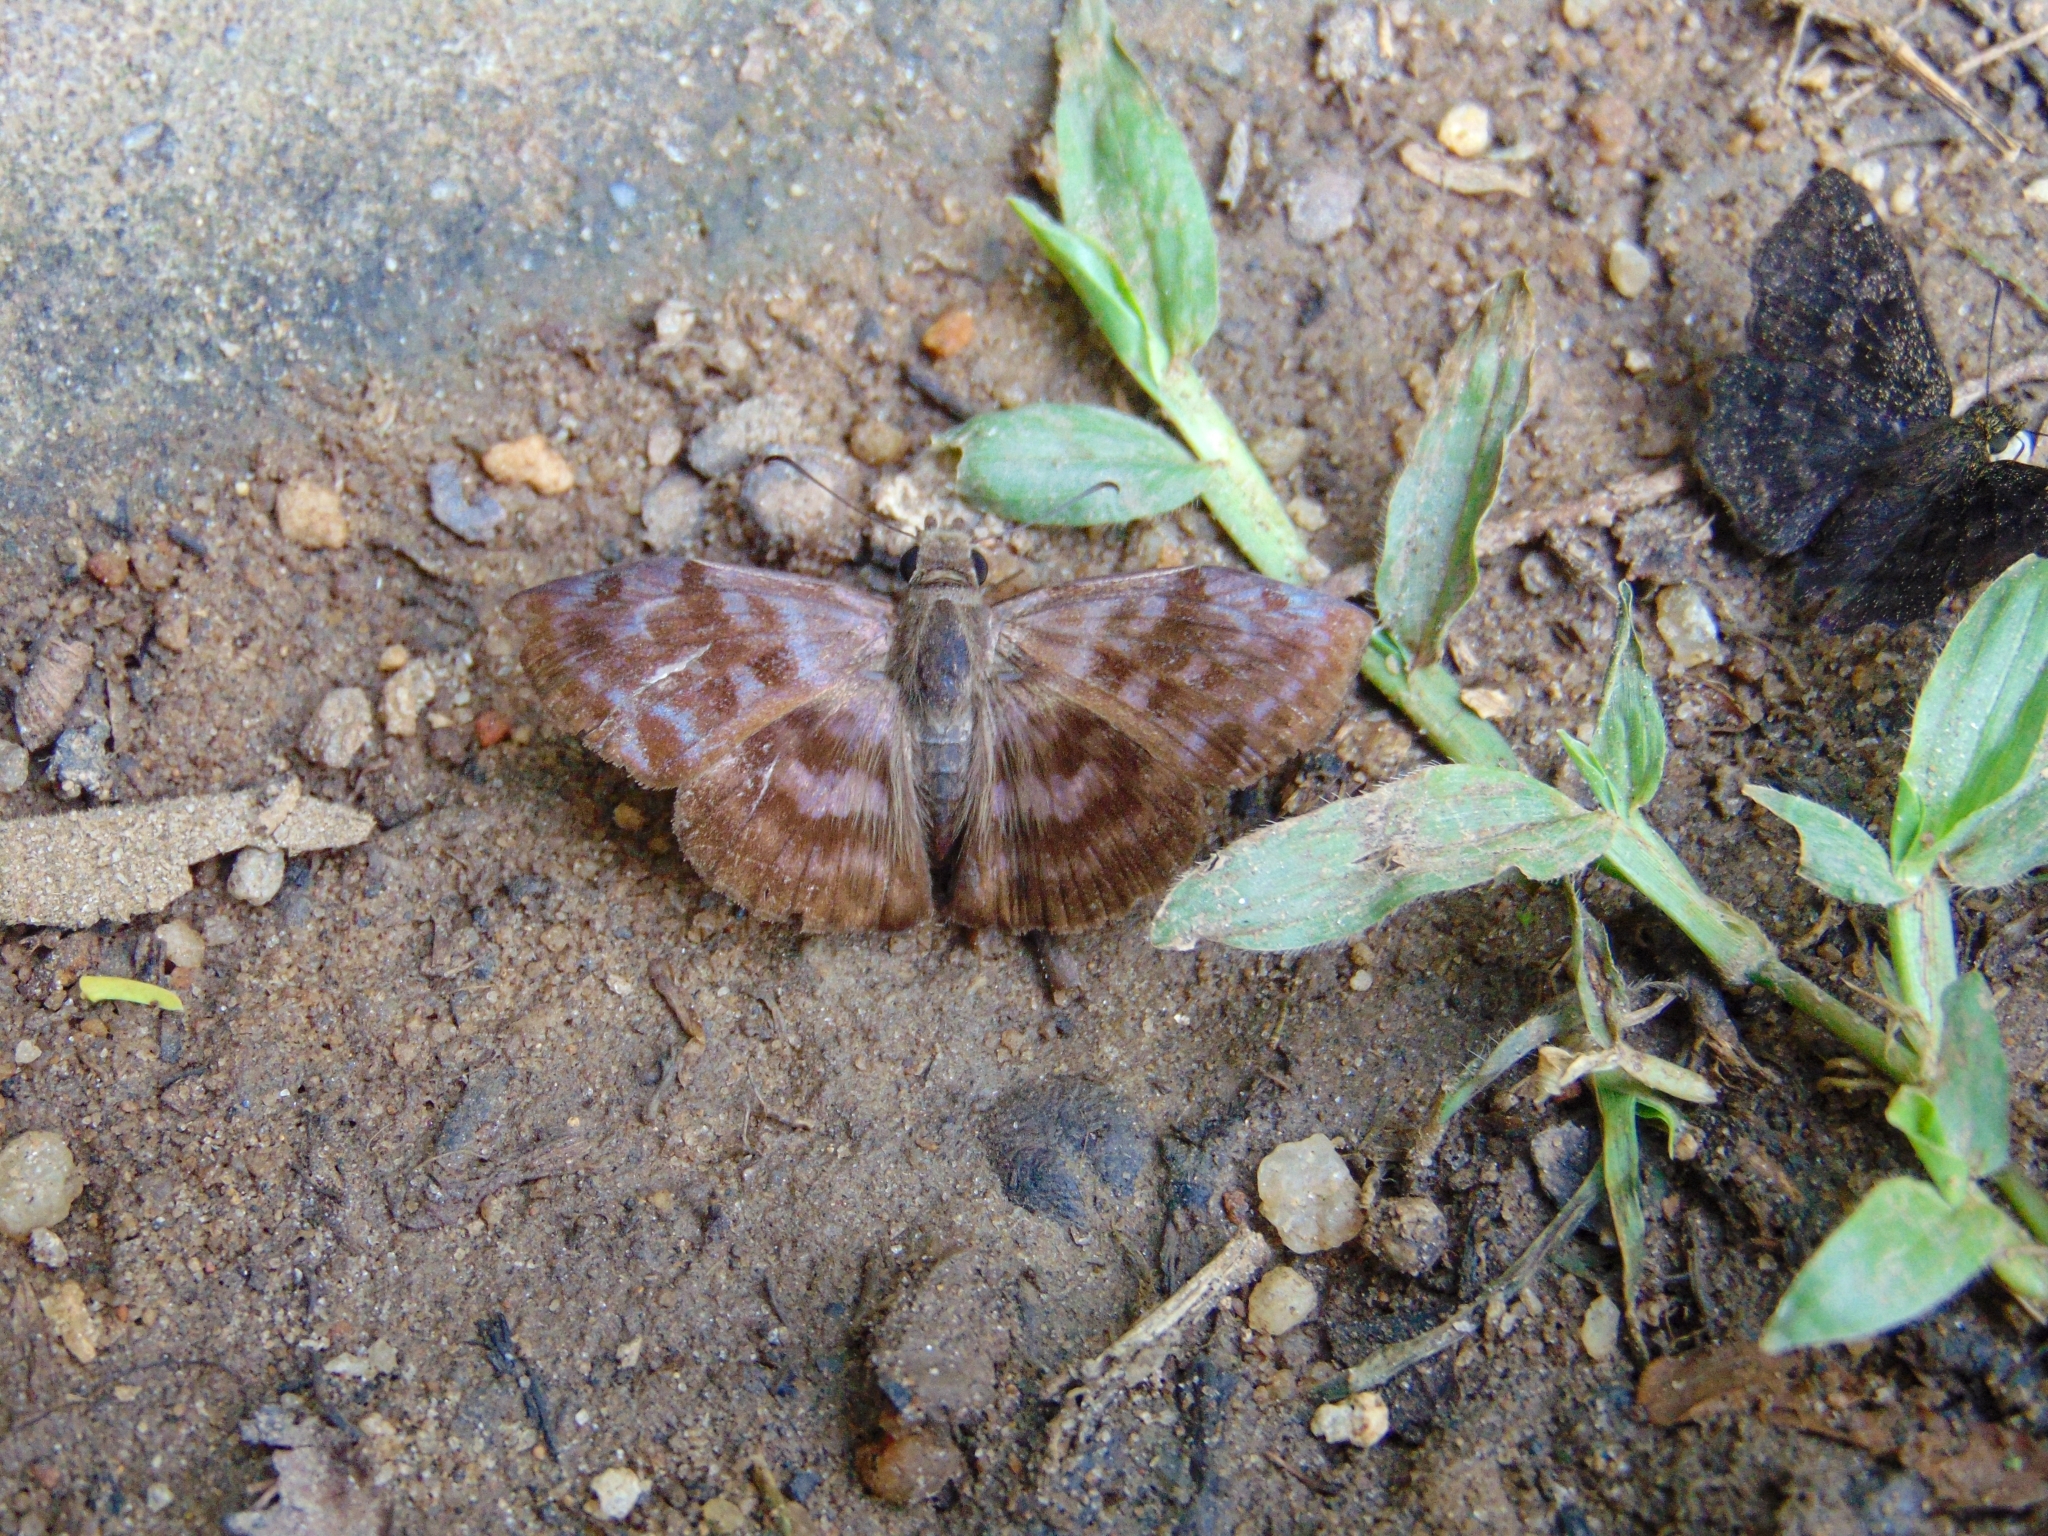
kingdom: Animalia
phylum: Arthropoda
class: Insecta
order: Lepidoptera
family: Hesperiidae
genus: Ebrietas
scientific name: Ebrietas anacreon
